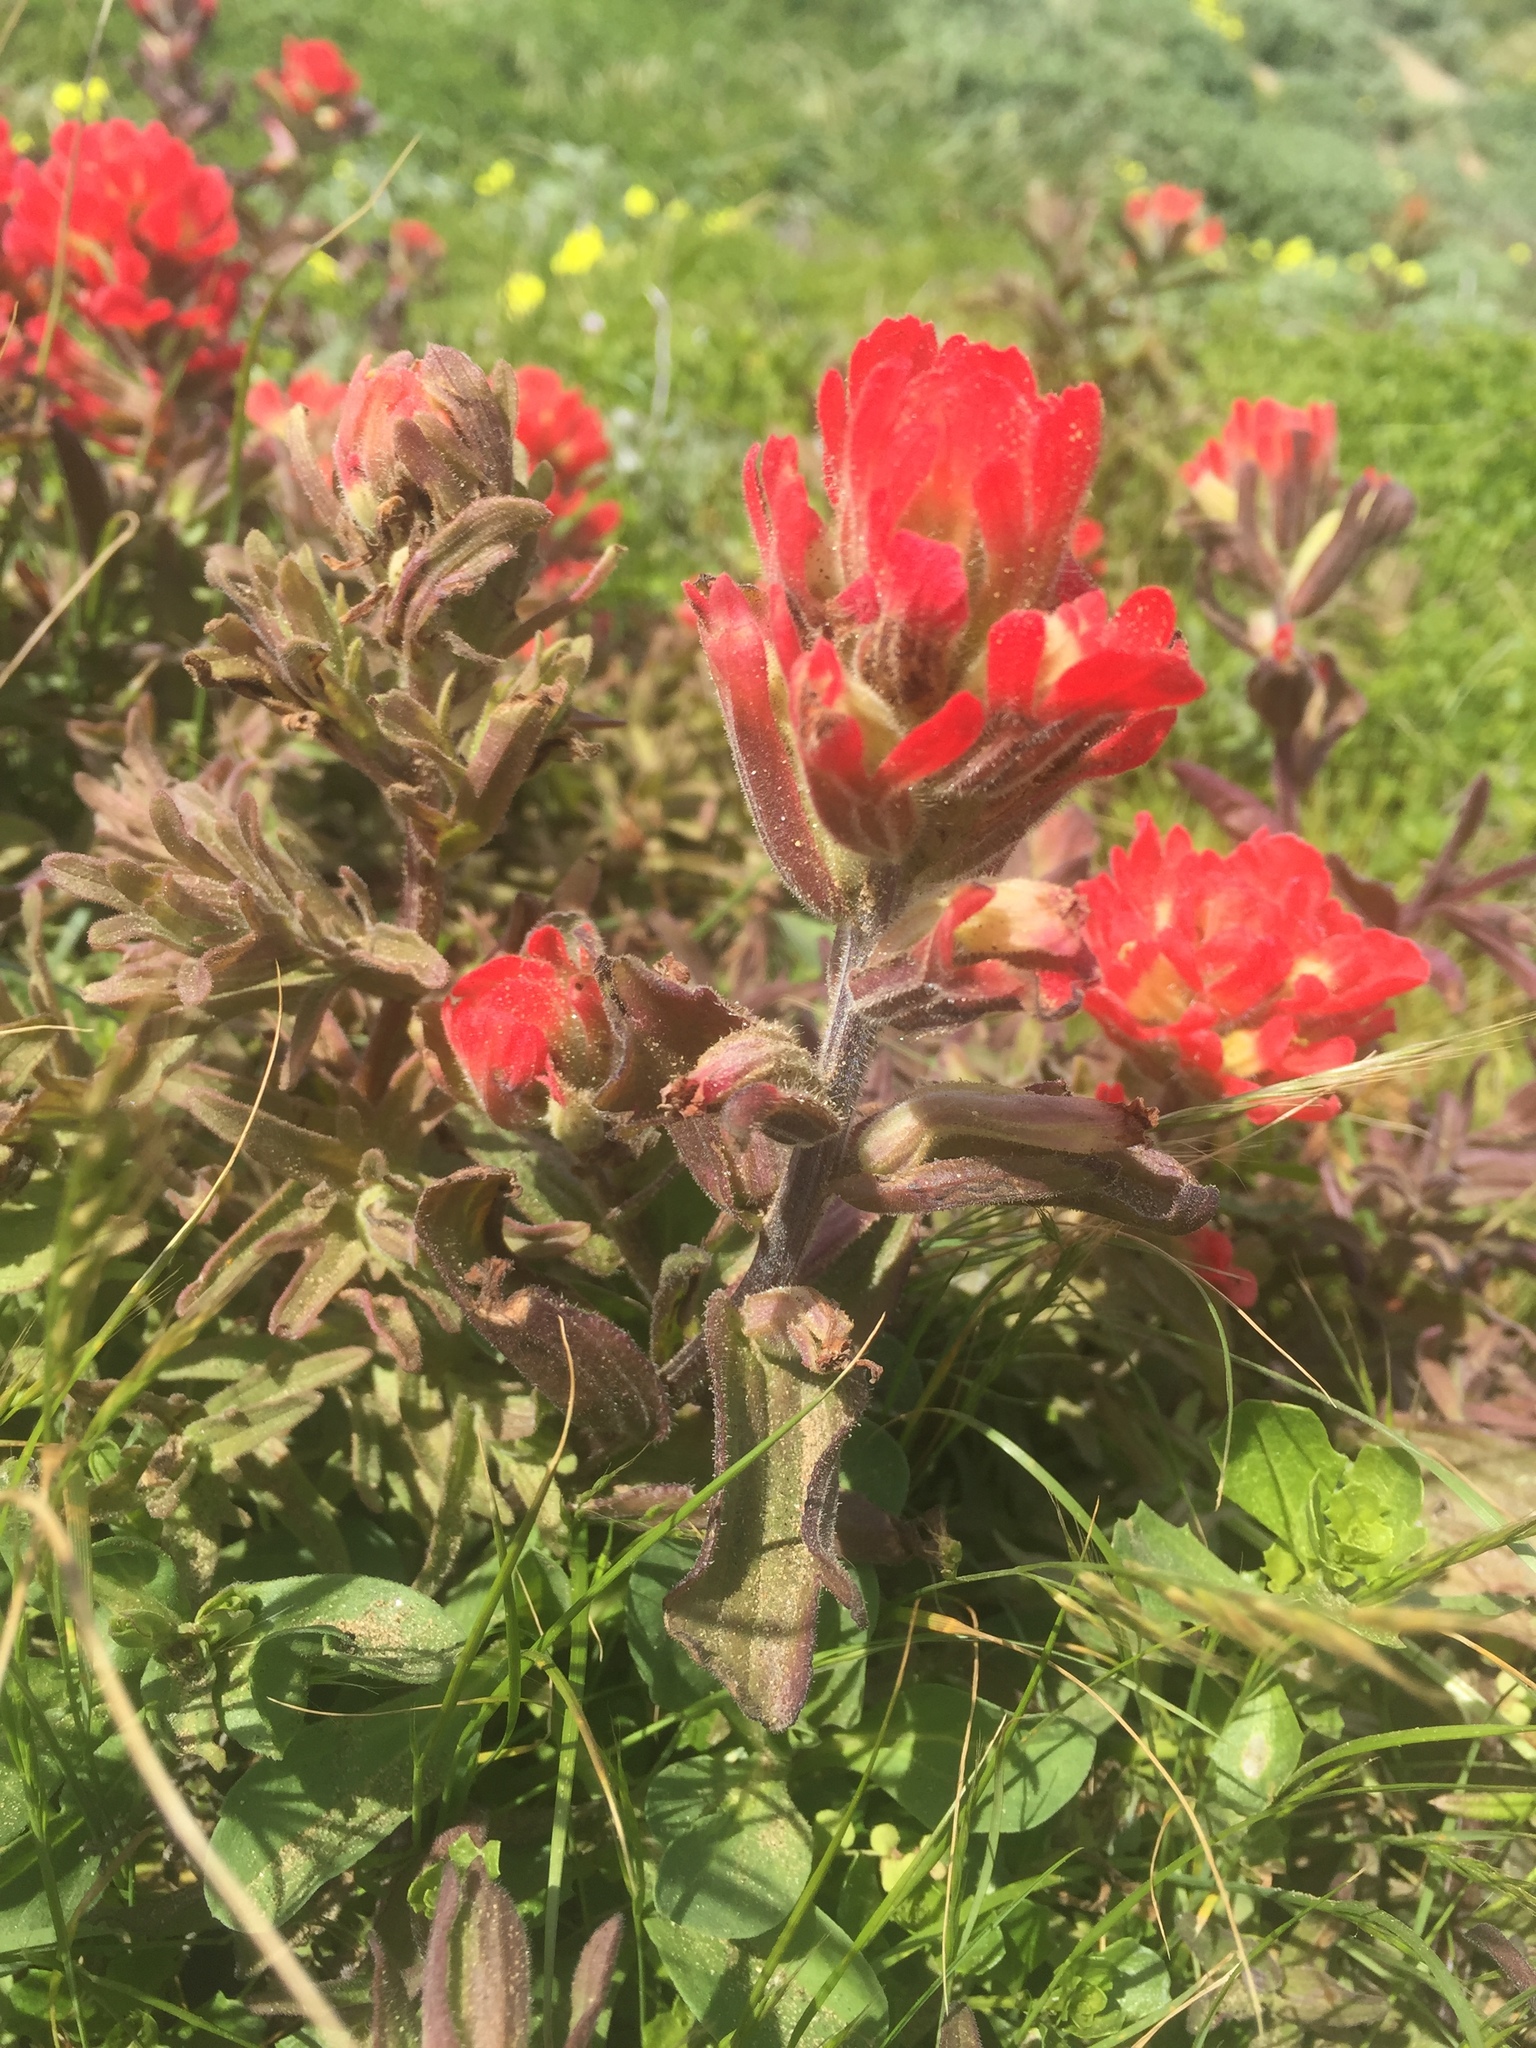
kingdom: Plantae
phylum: Tracheophyta
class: Magnoliopsida
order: Lamiales
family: Orobanchaceae
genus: Castilleja
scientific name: Castilleja affinis
